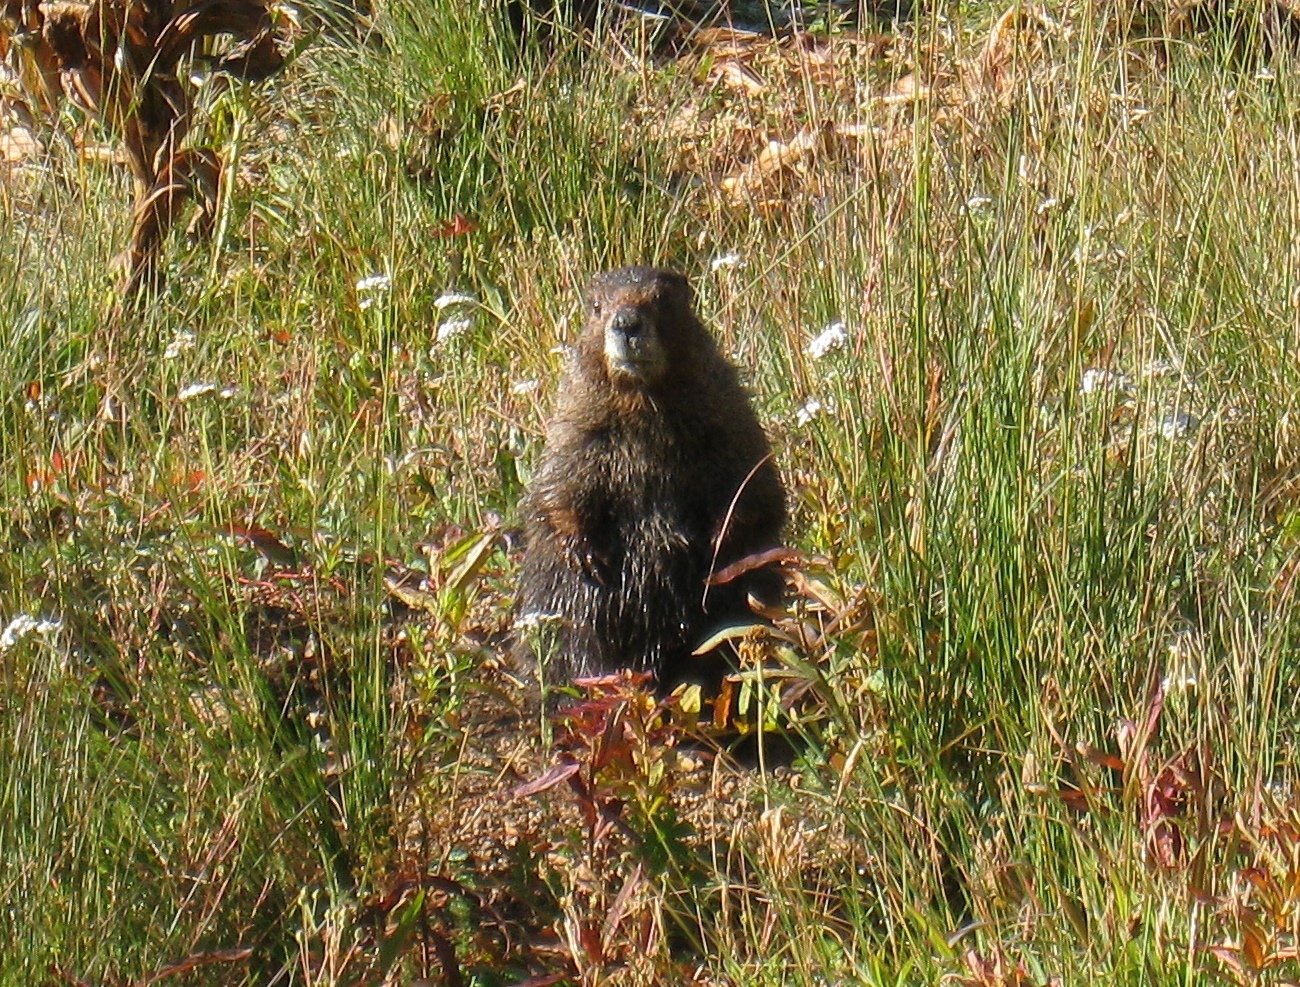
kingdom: Animalia
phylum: Chordata
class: Mammalia
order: Rodentia
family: Sciuridae
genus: Marmota
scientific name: Marmota flaviventris
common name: Yellow-bellied marmot
